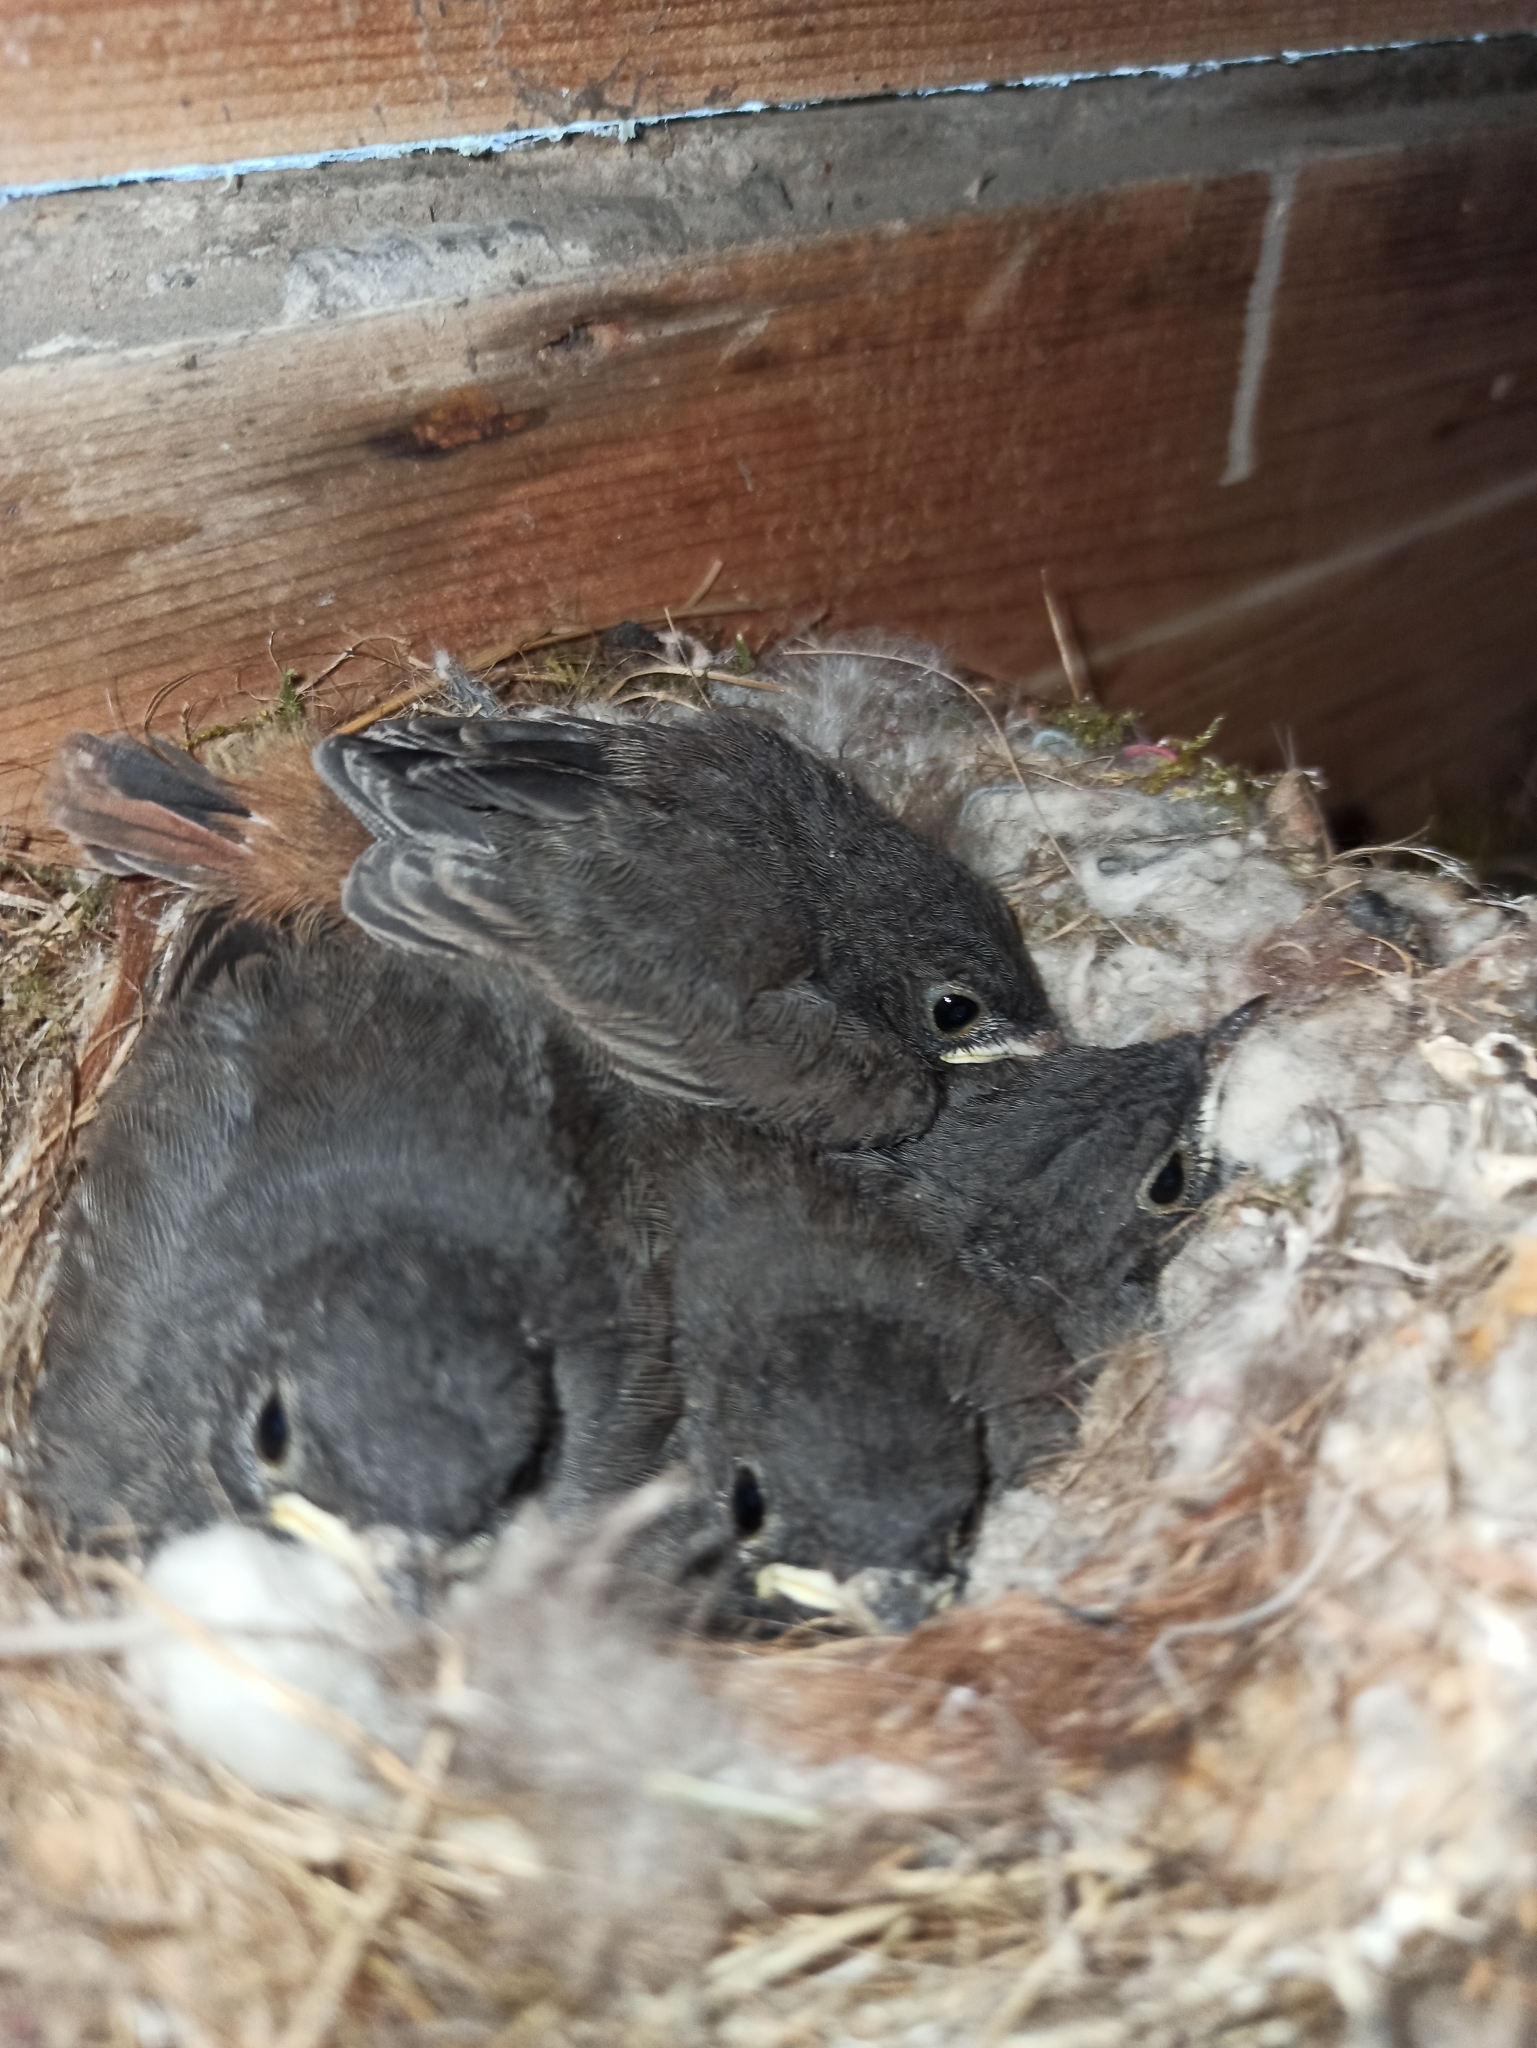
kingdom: Animalia
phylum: Chordata
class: Aves
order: Passeriformes
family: Muscicapidae
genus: Phoenicurus
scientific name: Phoenicurus ochruros
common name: Black redstart
